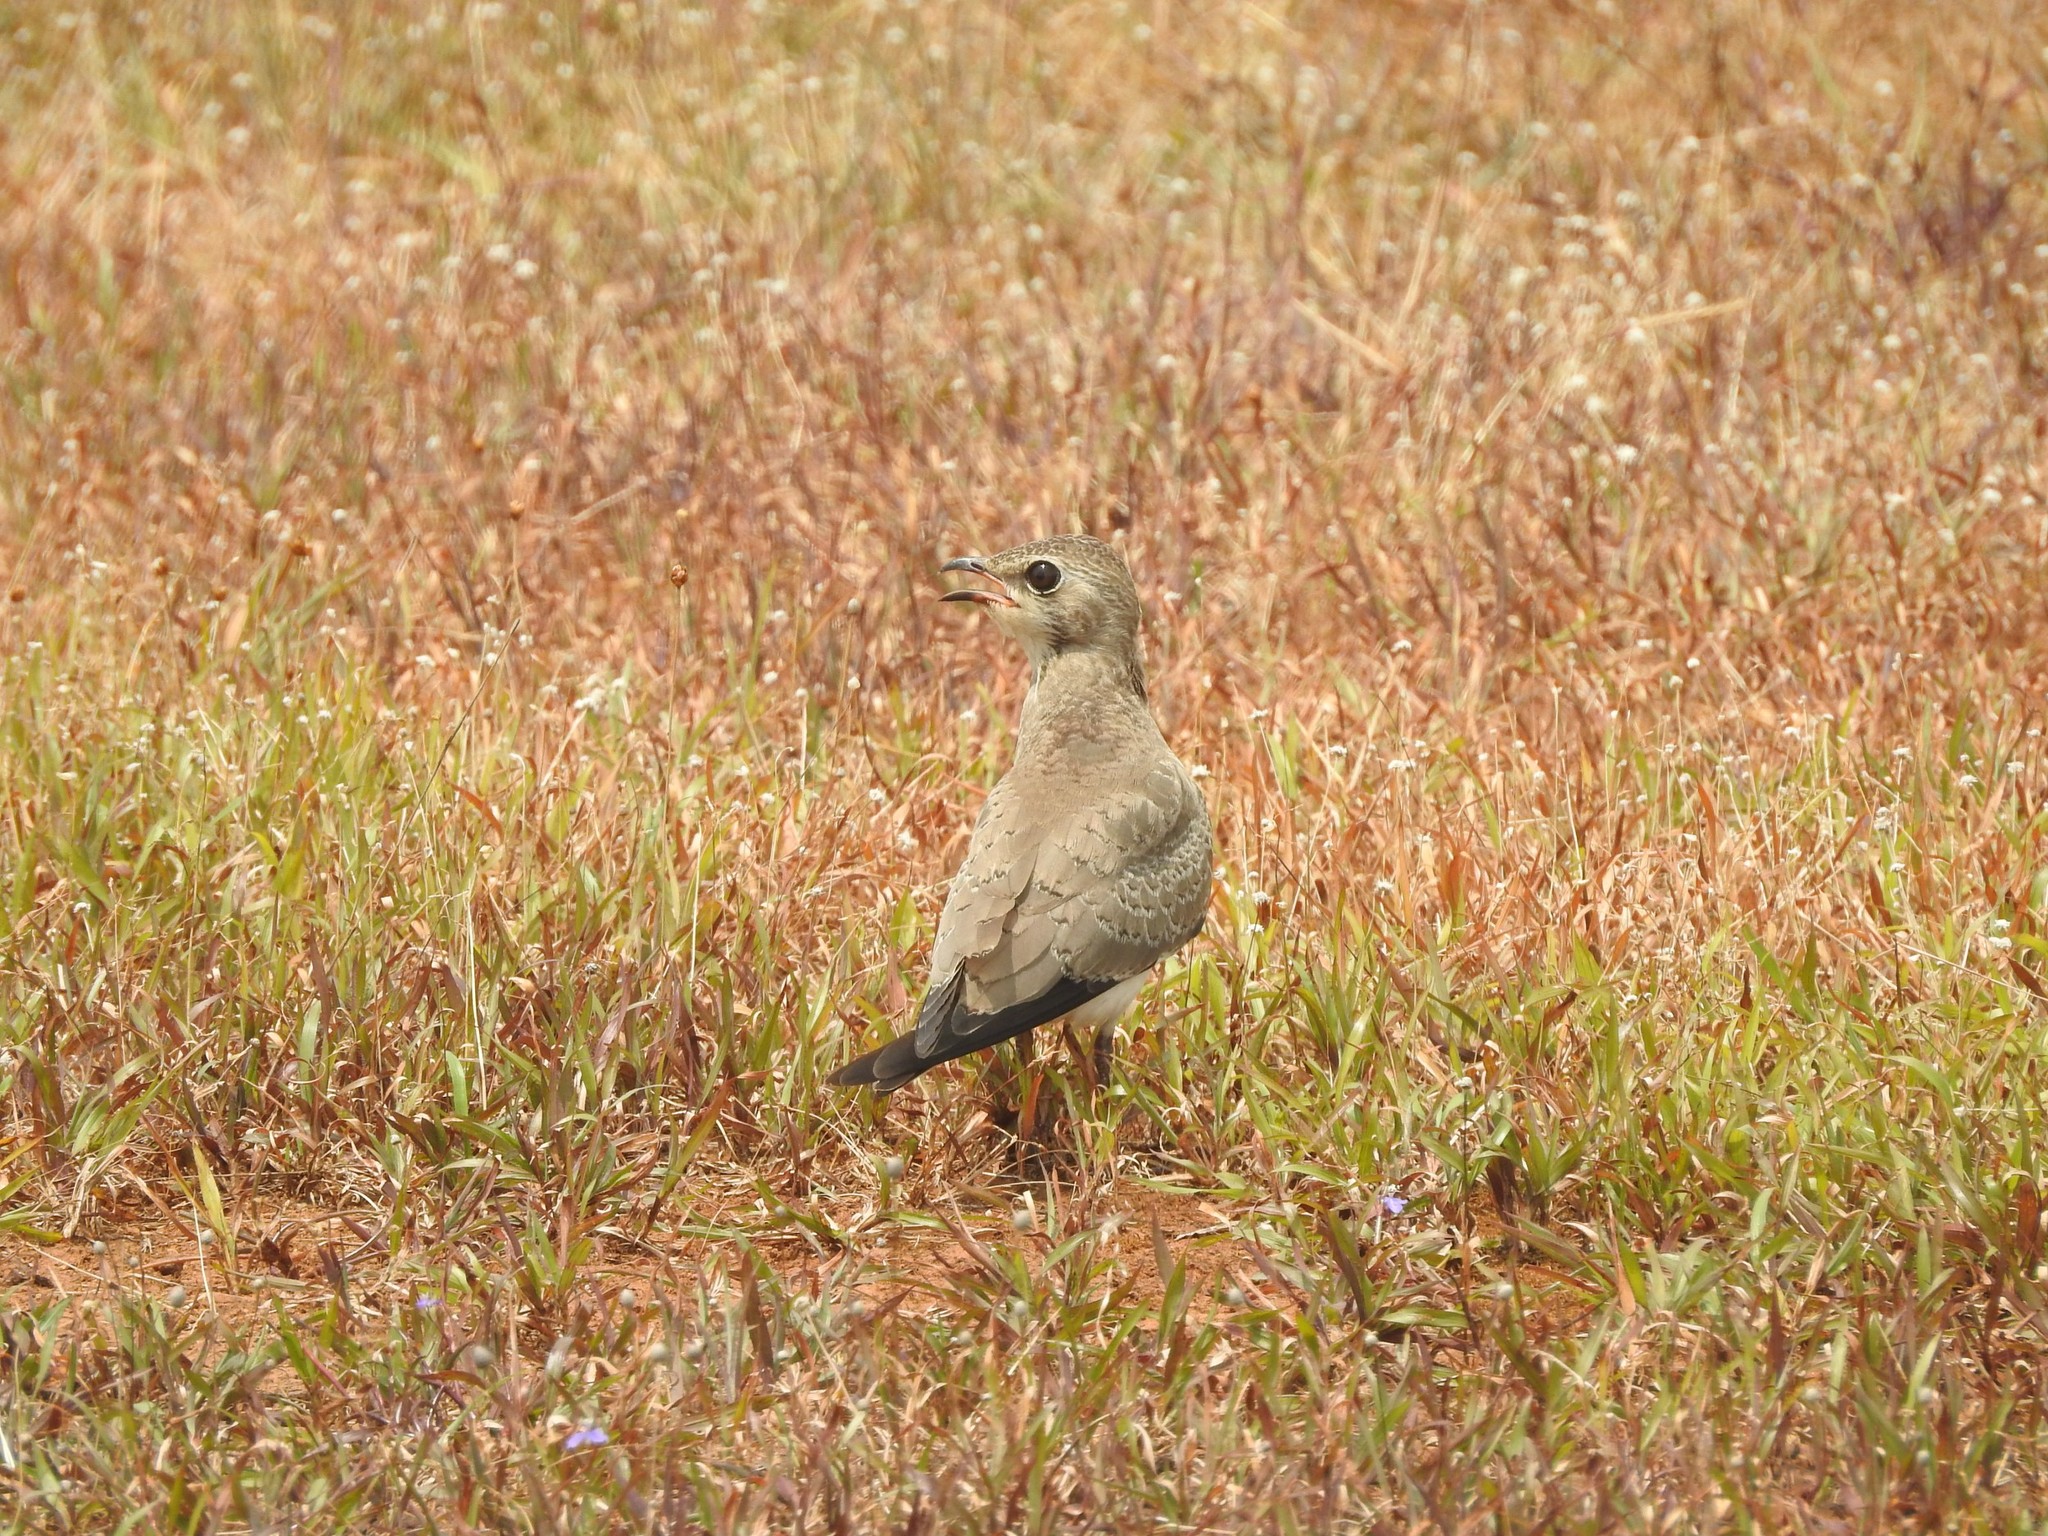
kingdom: Animalia
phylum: Chordata
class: Aves
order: Charadriiformes
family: Glareolidae
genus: Glareola
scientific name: Glareola maldivarum
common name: Oriental pratincole
